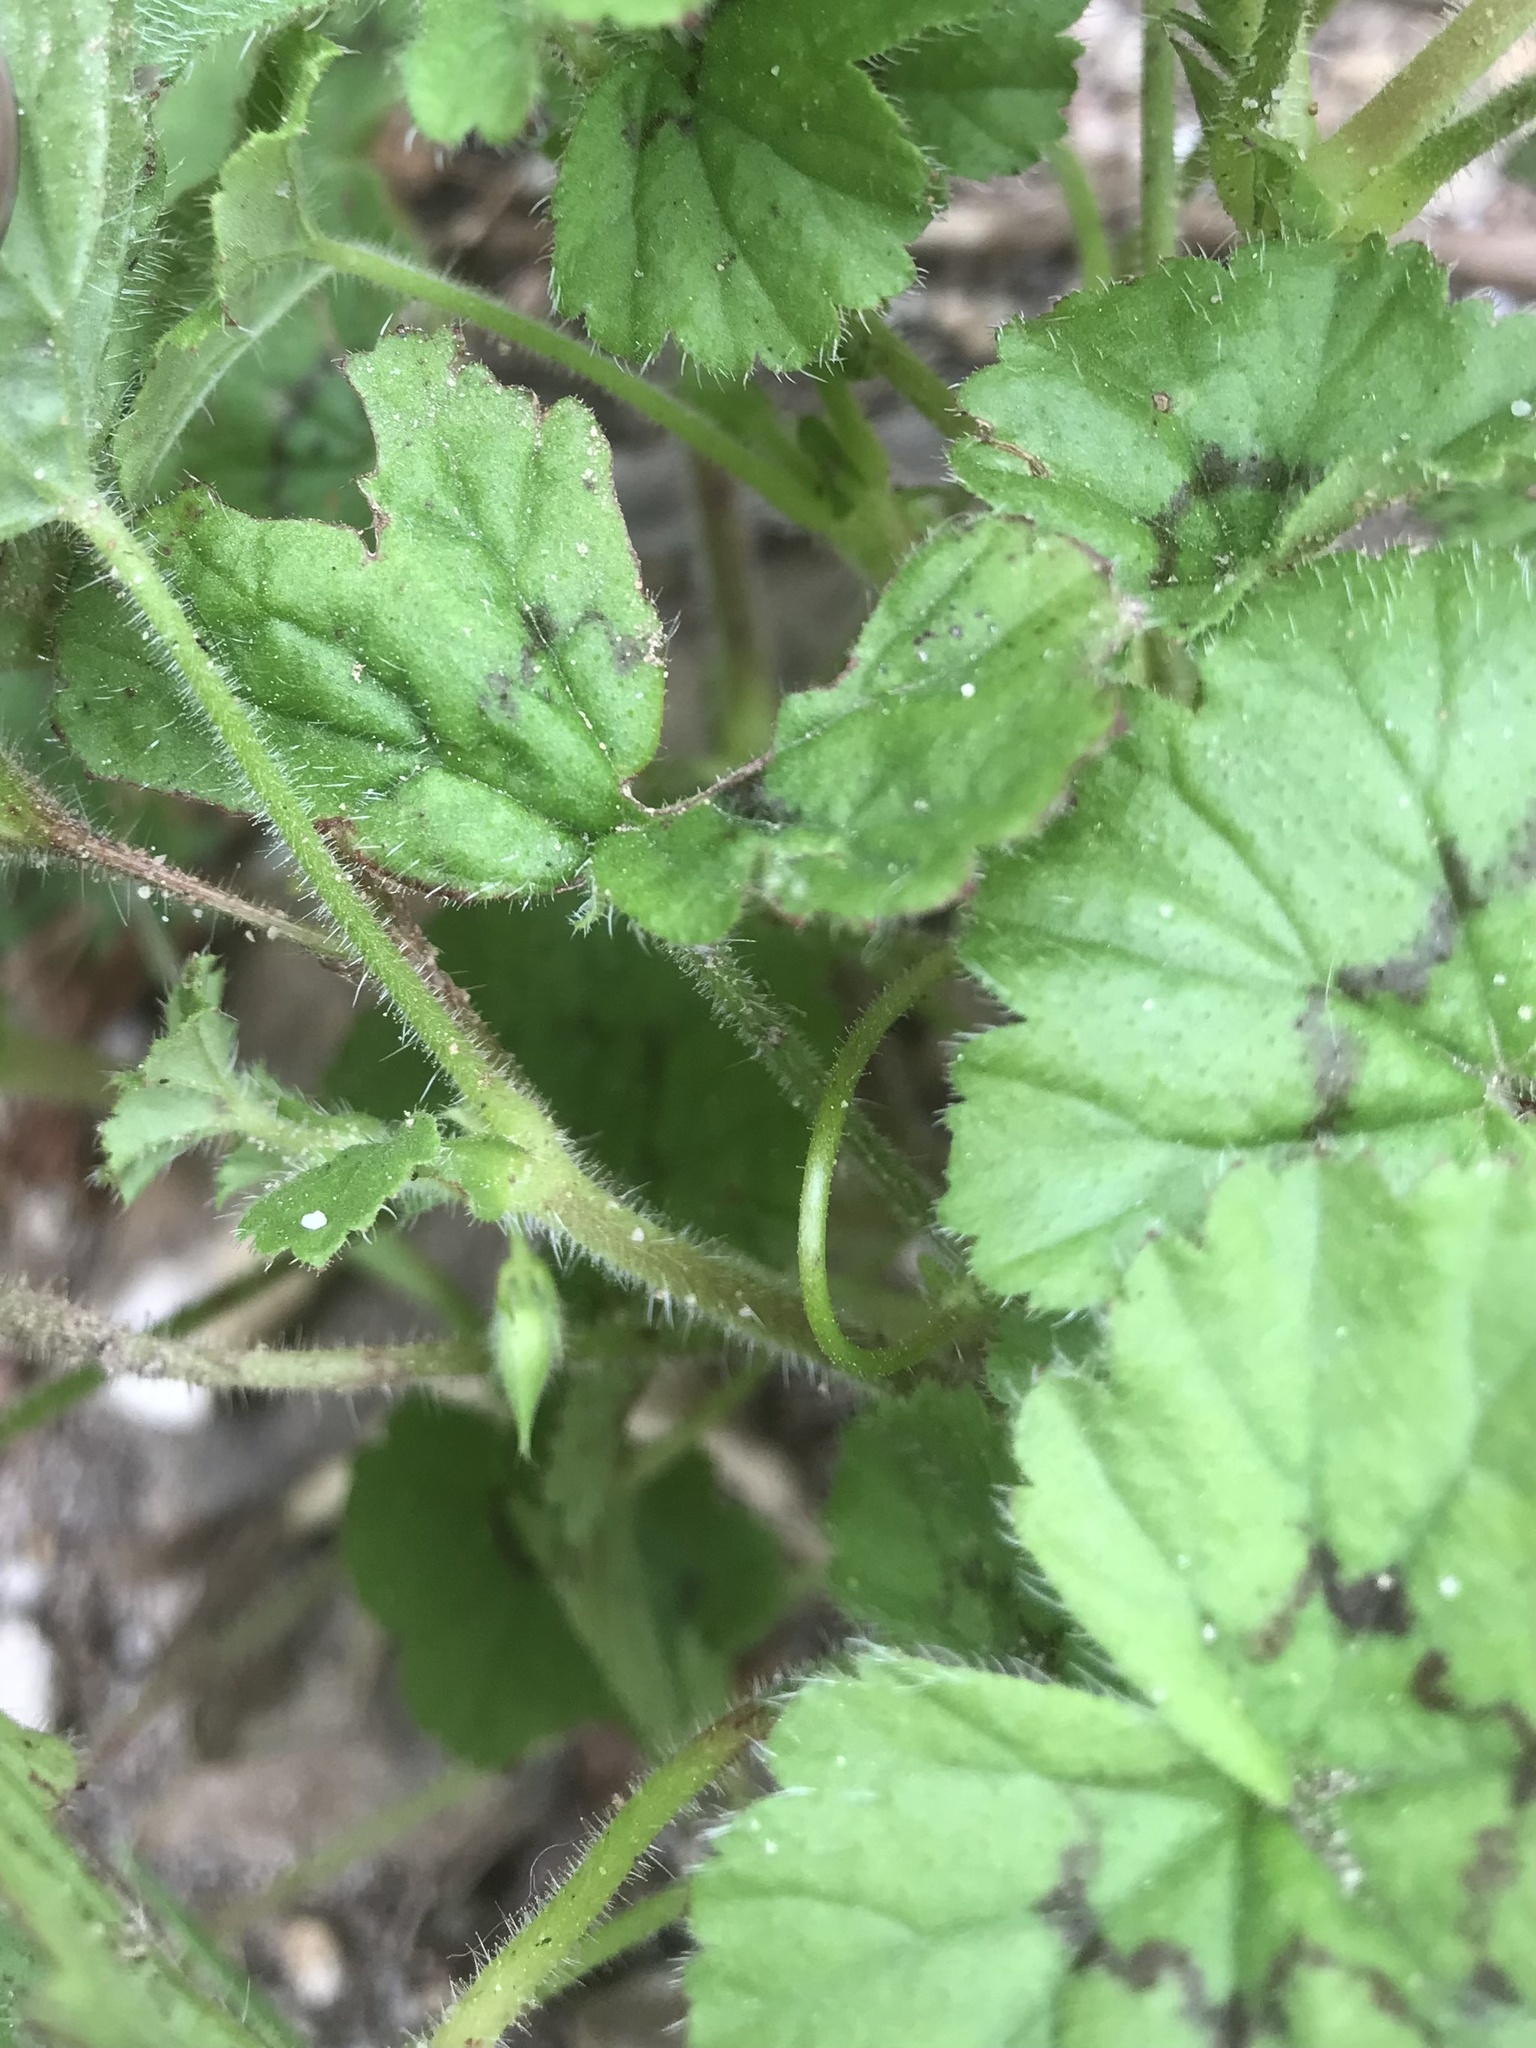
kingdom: Plantae
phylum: Tracheophyta
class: Magnoliopsida
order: Geraniales
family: Geraniaceae
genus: Pelargonium
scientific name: Pelargonium elongatum
